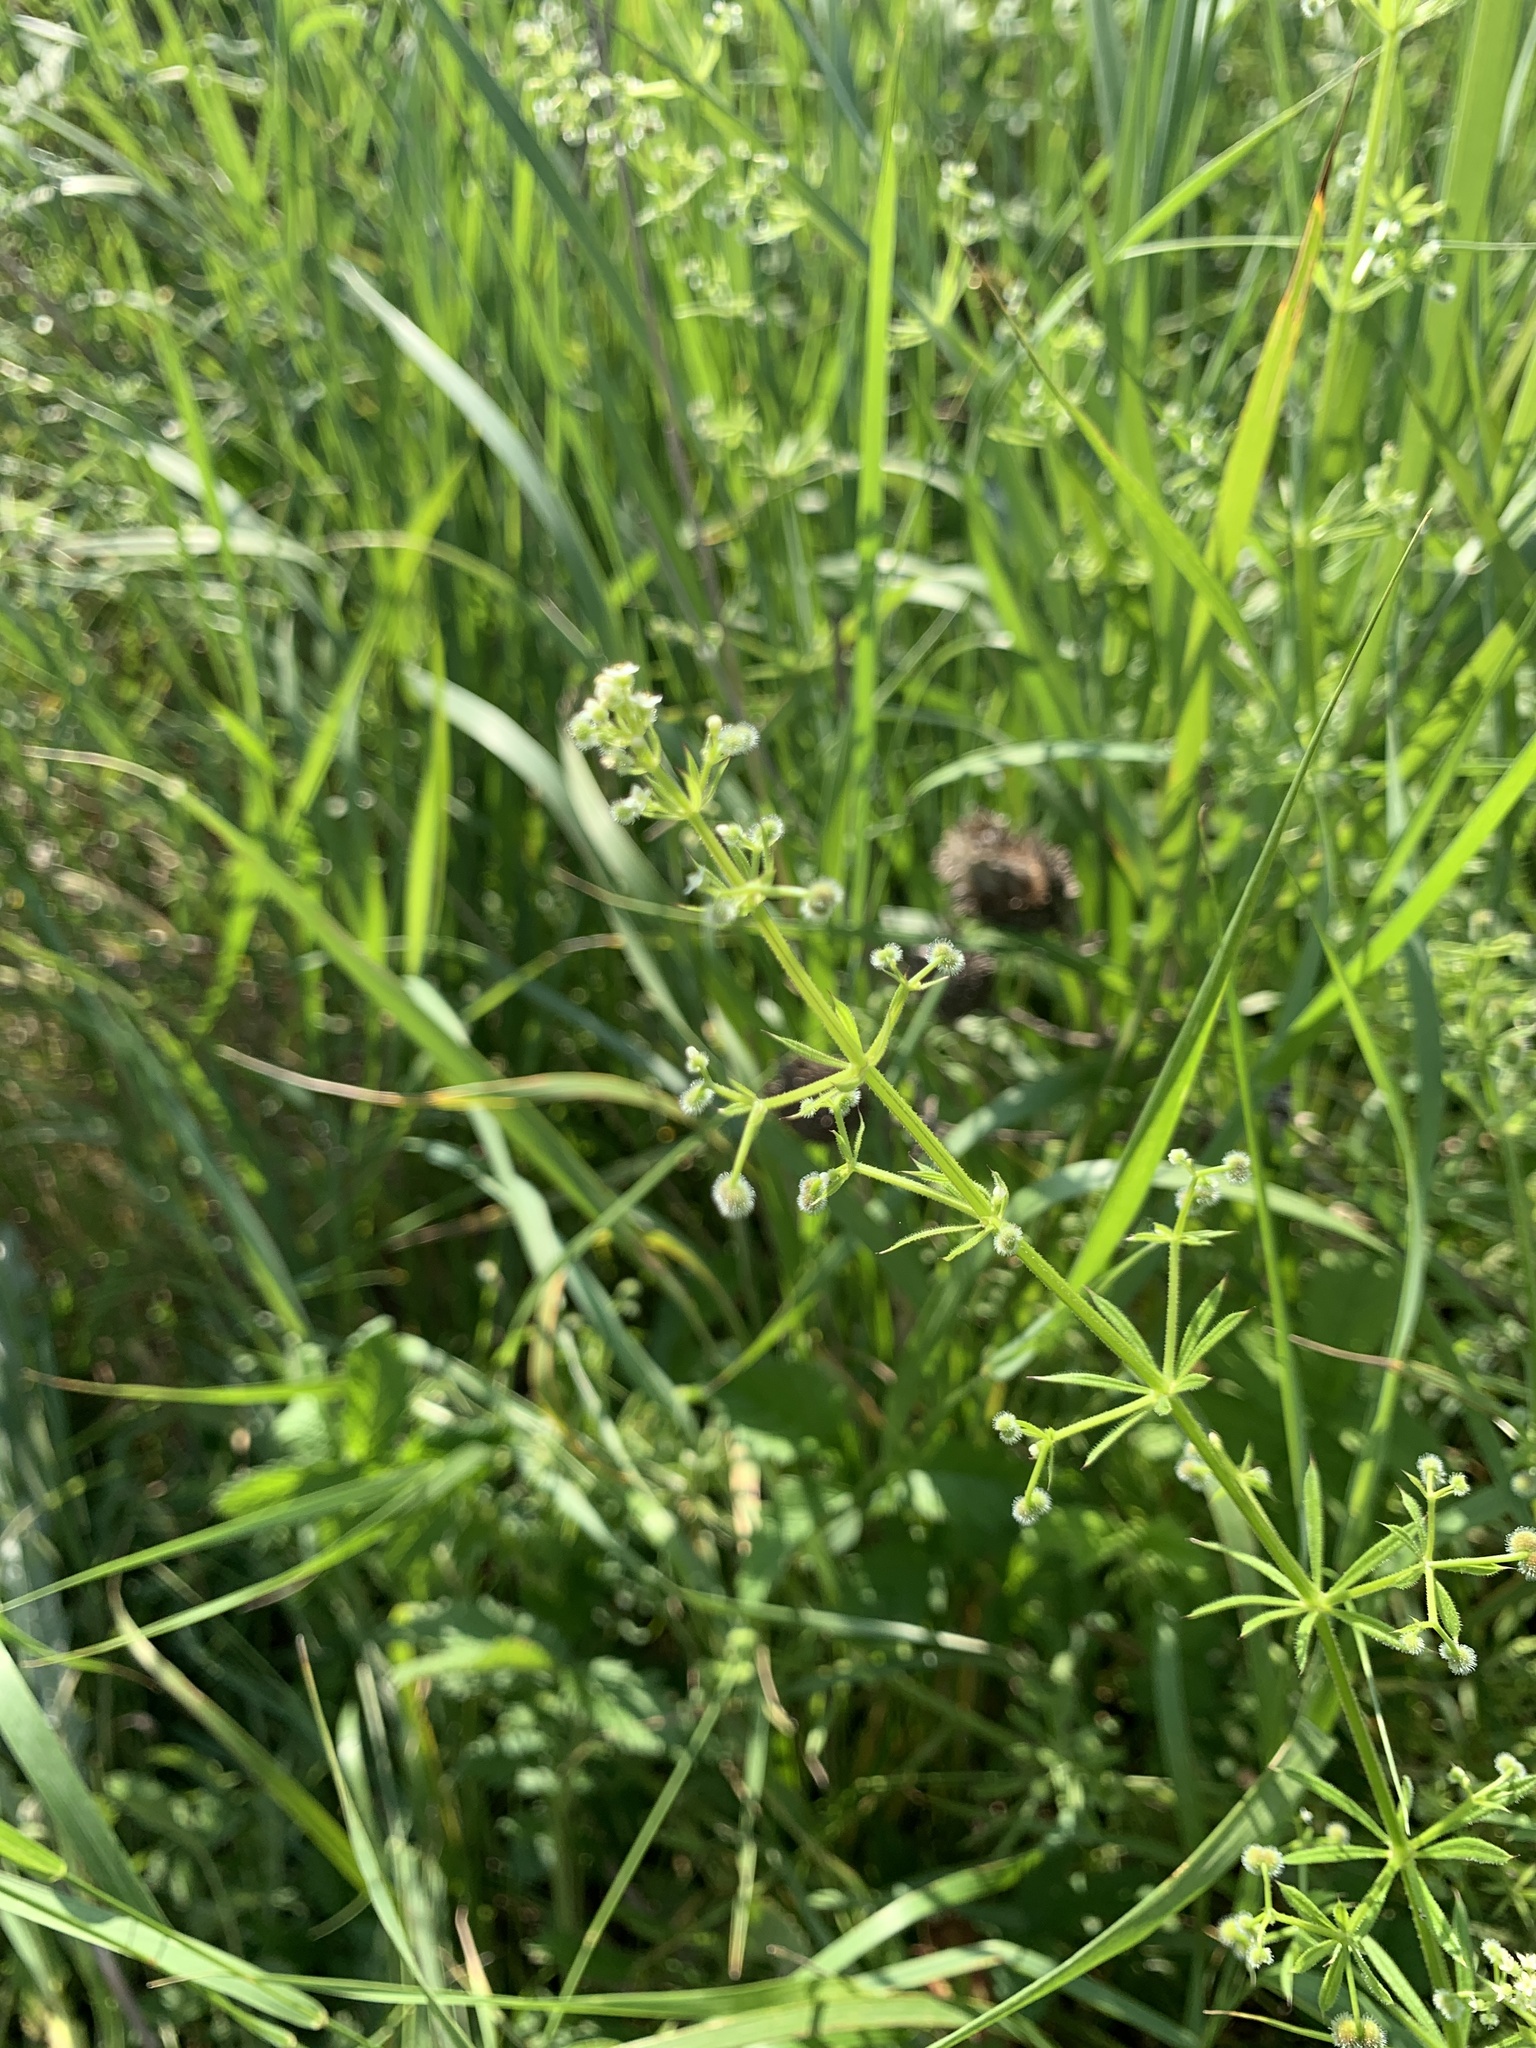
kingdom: Plantae
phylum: Tracheophyta
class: Magnoliopsida
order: Gentianales
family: Rubiaceae
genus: Galium
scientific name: Galium aparine
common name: Cleavers
